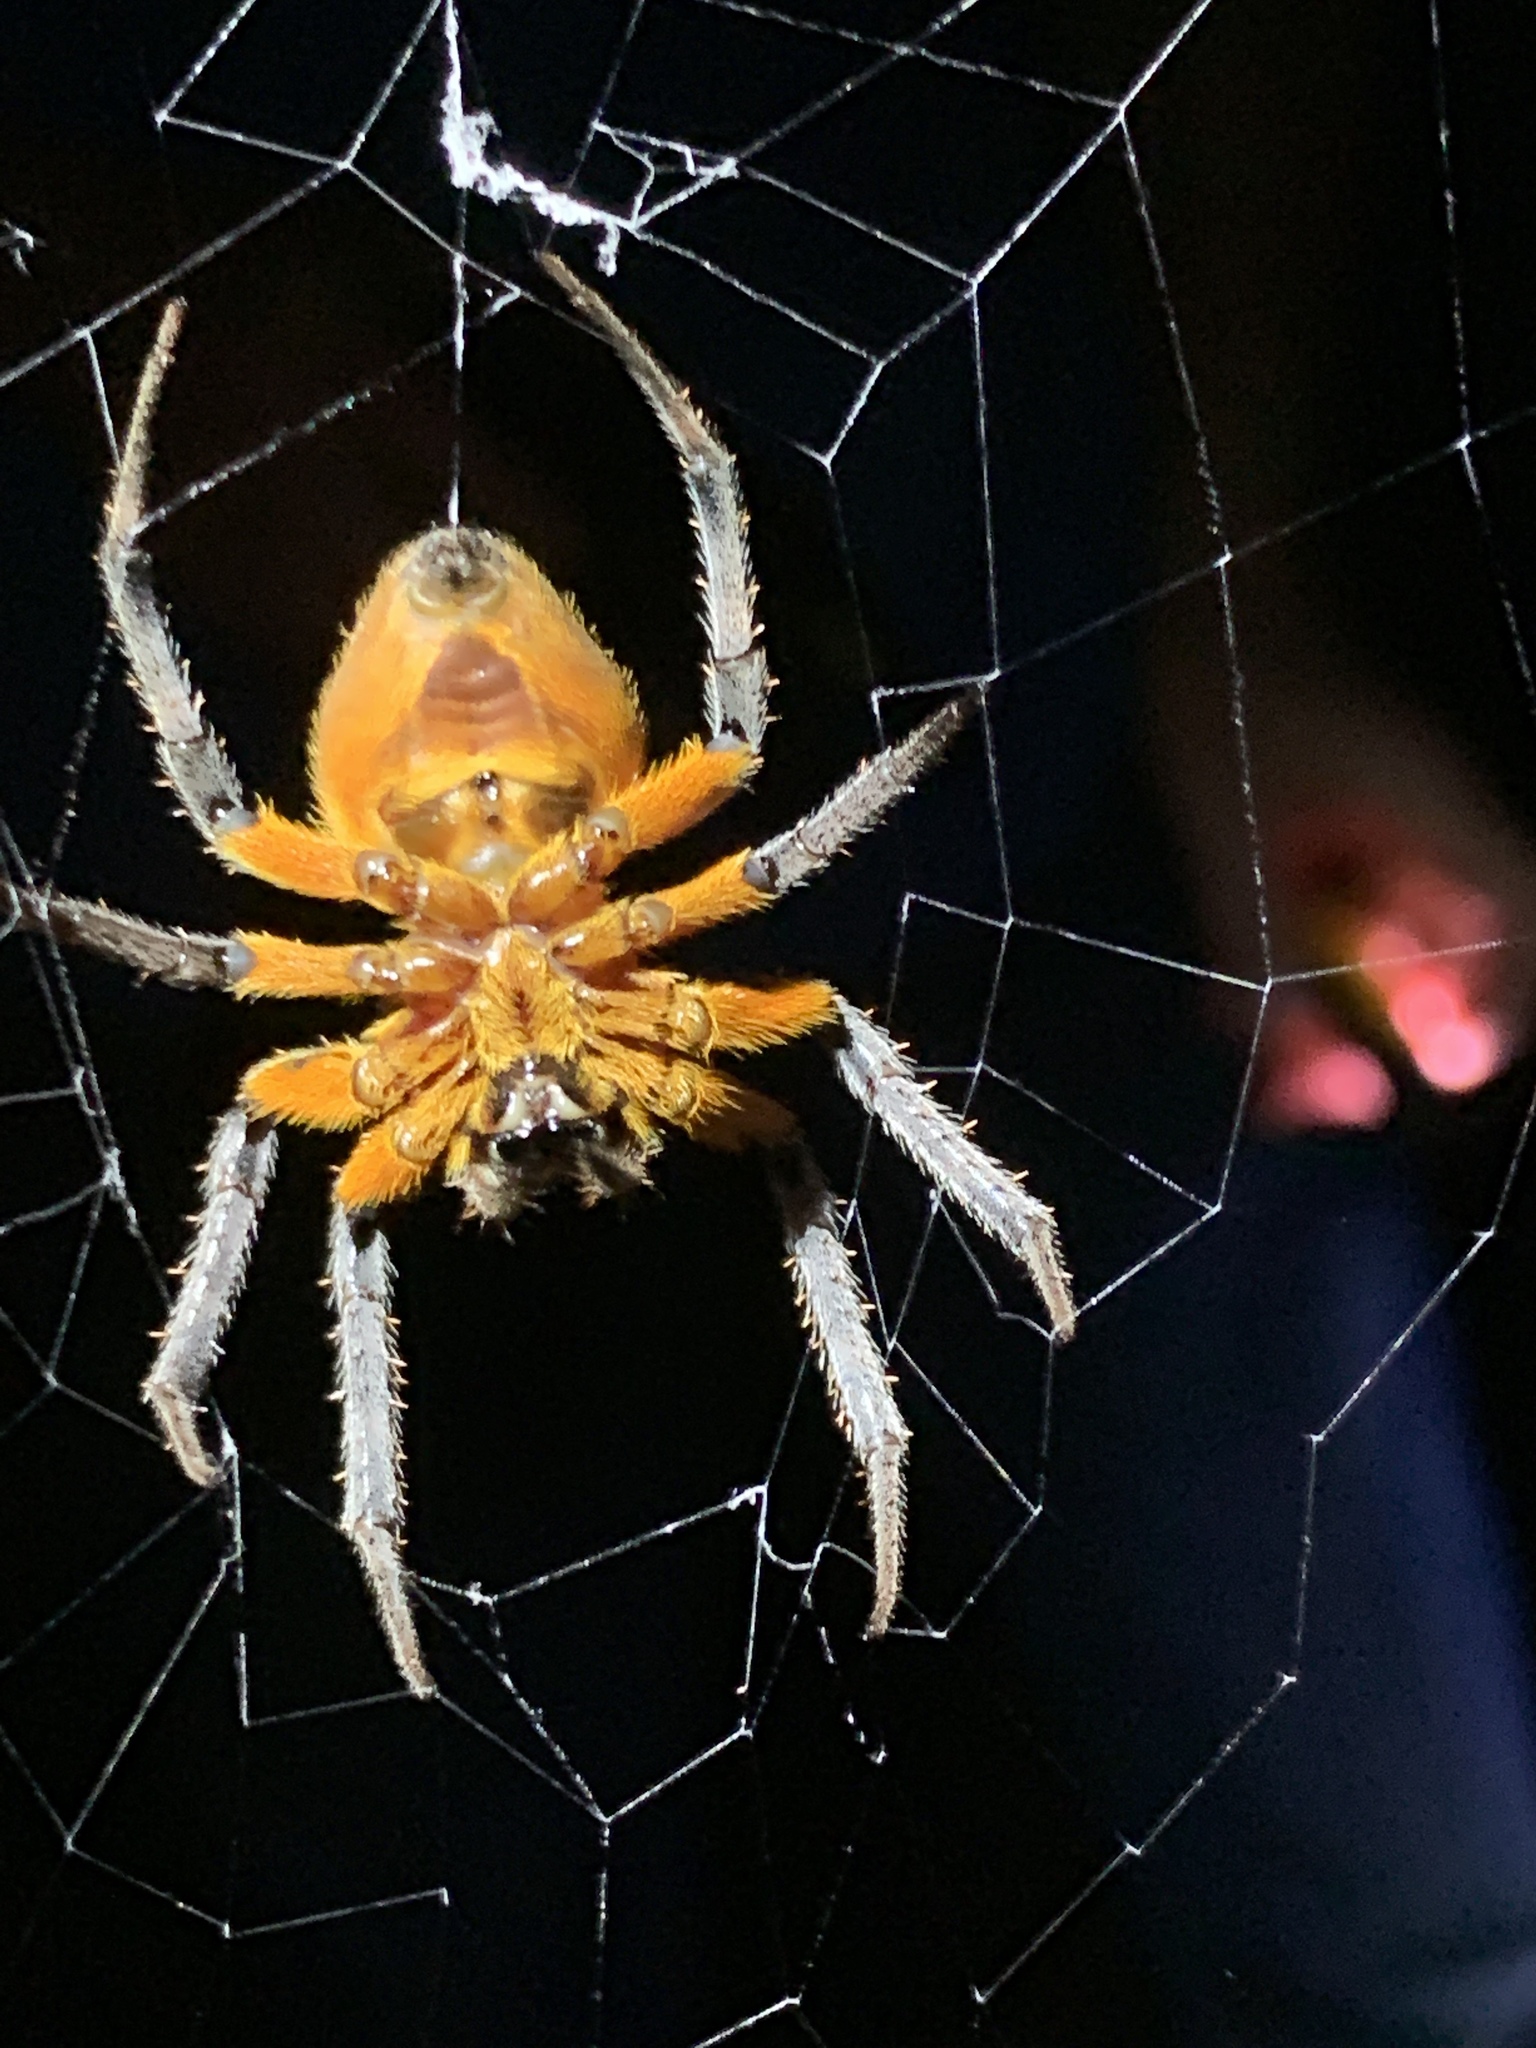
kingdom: Animalia
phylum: Arthropoda
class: Arachnida
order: Araneae
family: Araneidae
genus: Eriophora
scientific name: Eriophora ravilla
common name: Orb weavers
